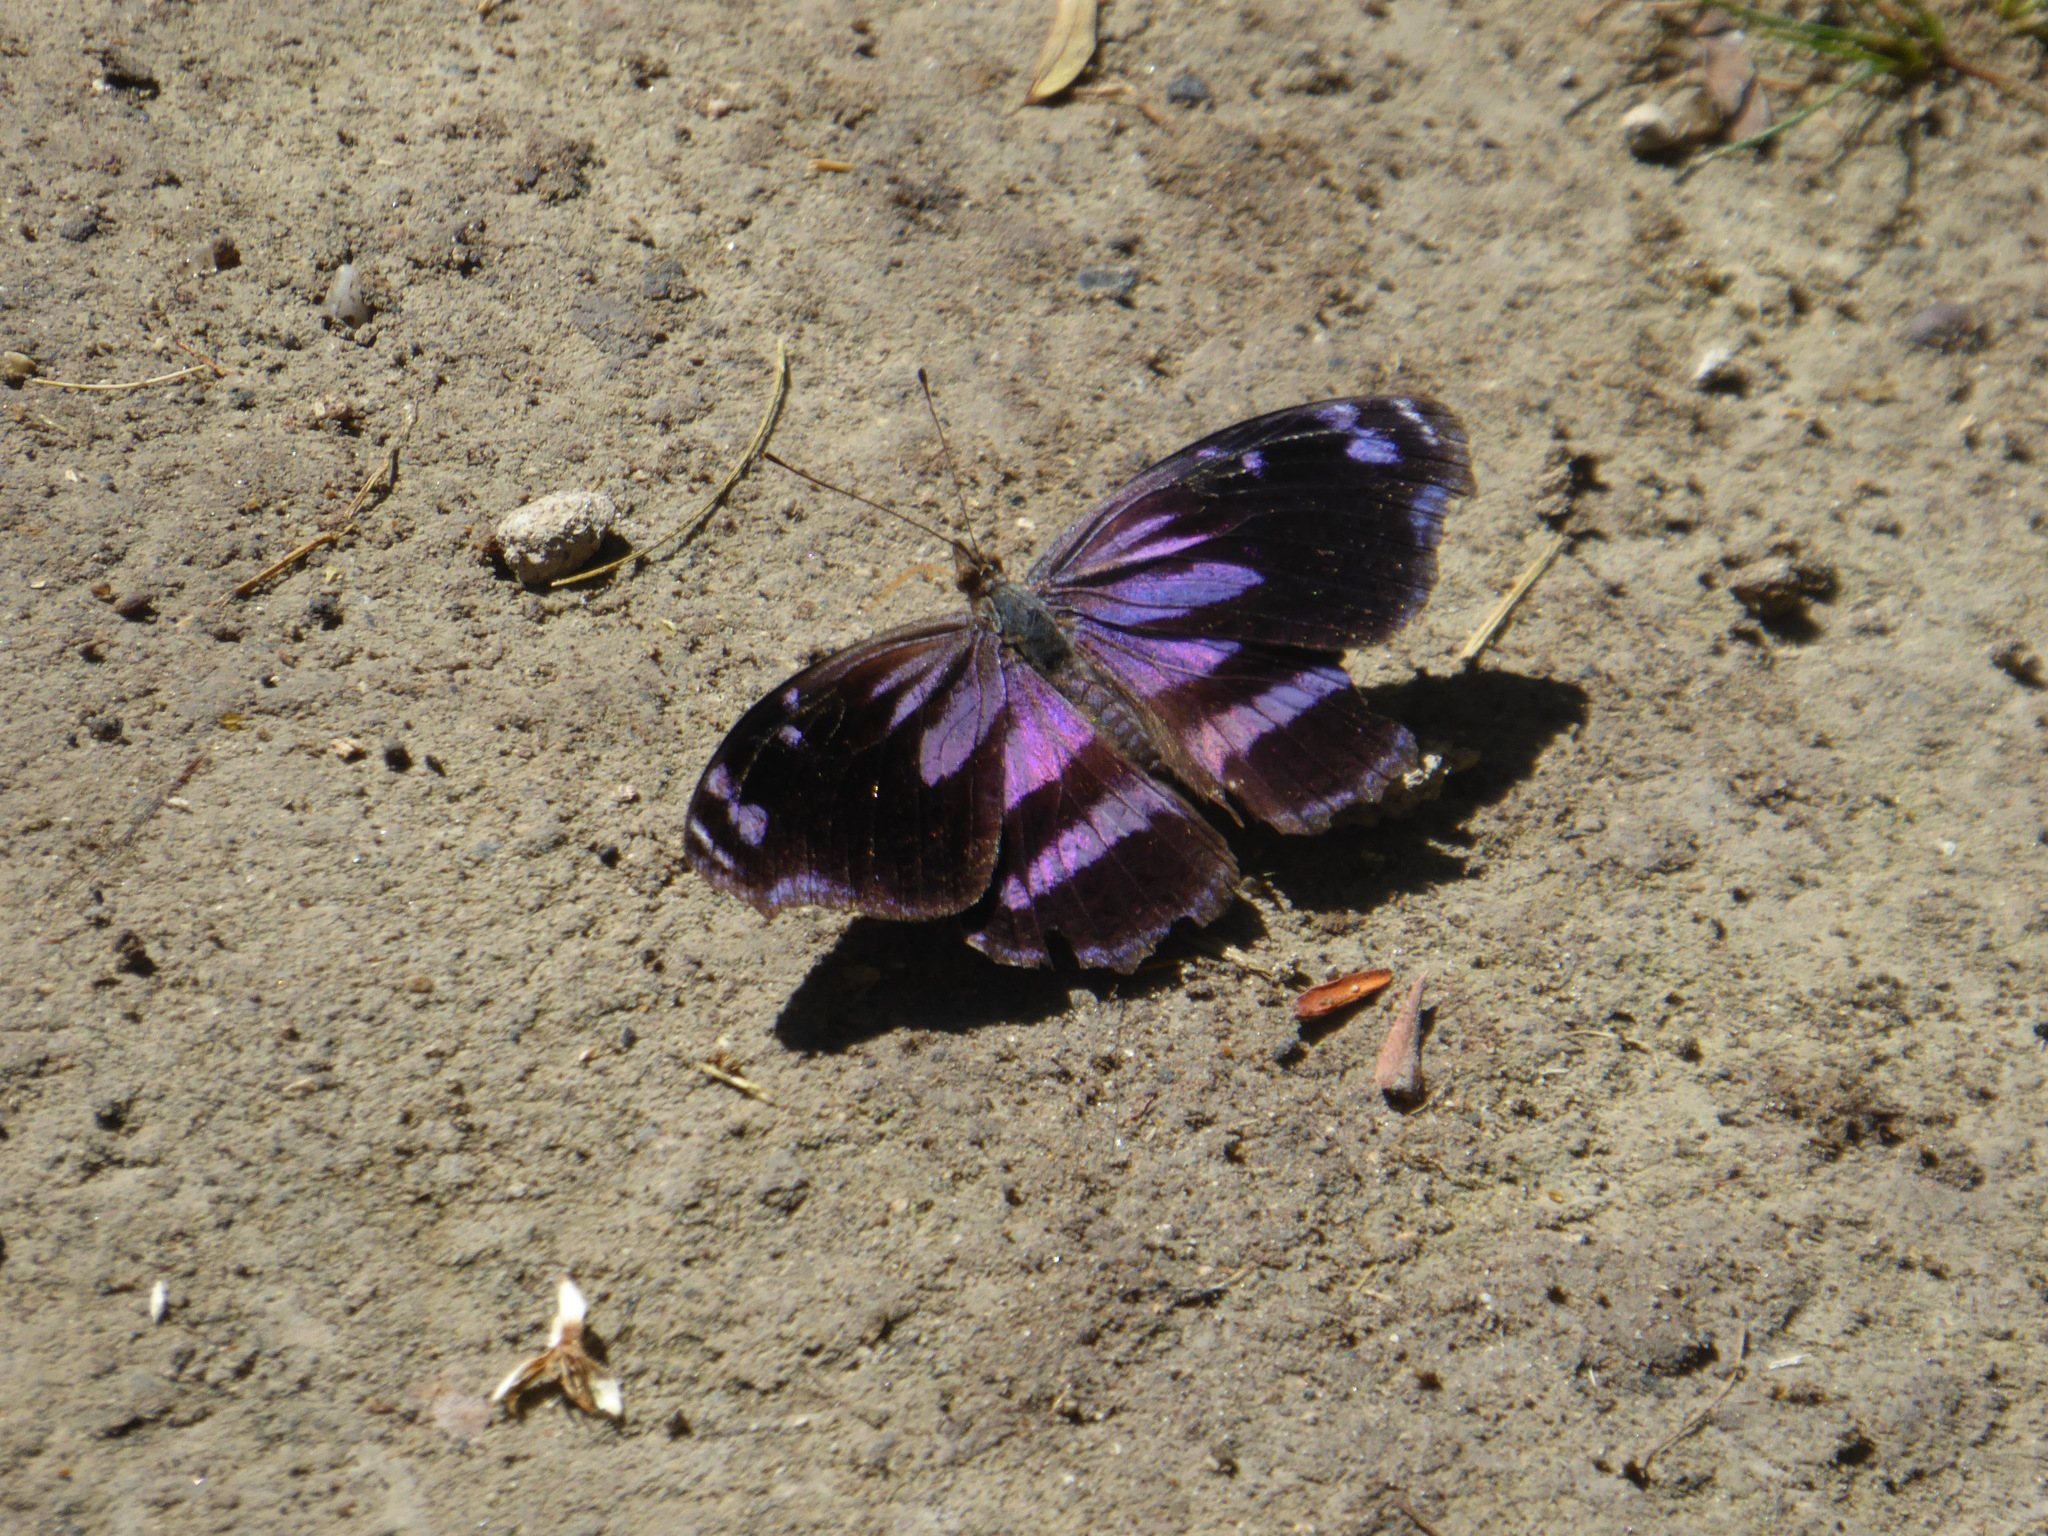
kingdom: Animalia
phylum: Arthropoda
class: Insecta
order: Lepidoptera
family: Nymphalidae
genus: Myscelia
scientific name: Myscelia cyananthe
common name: Blackened bluewing
